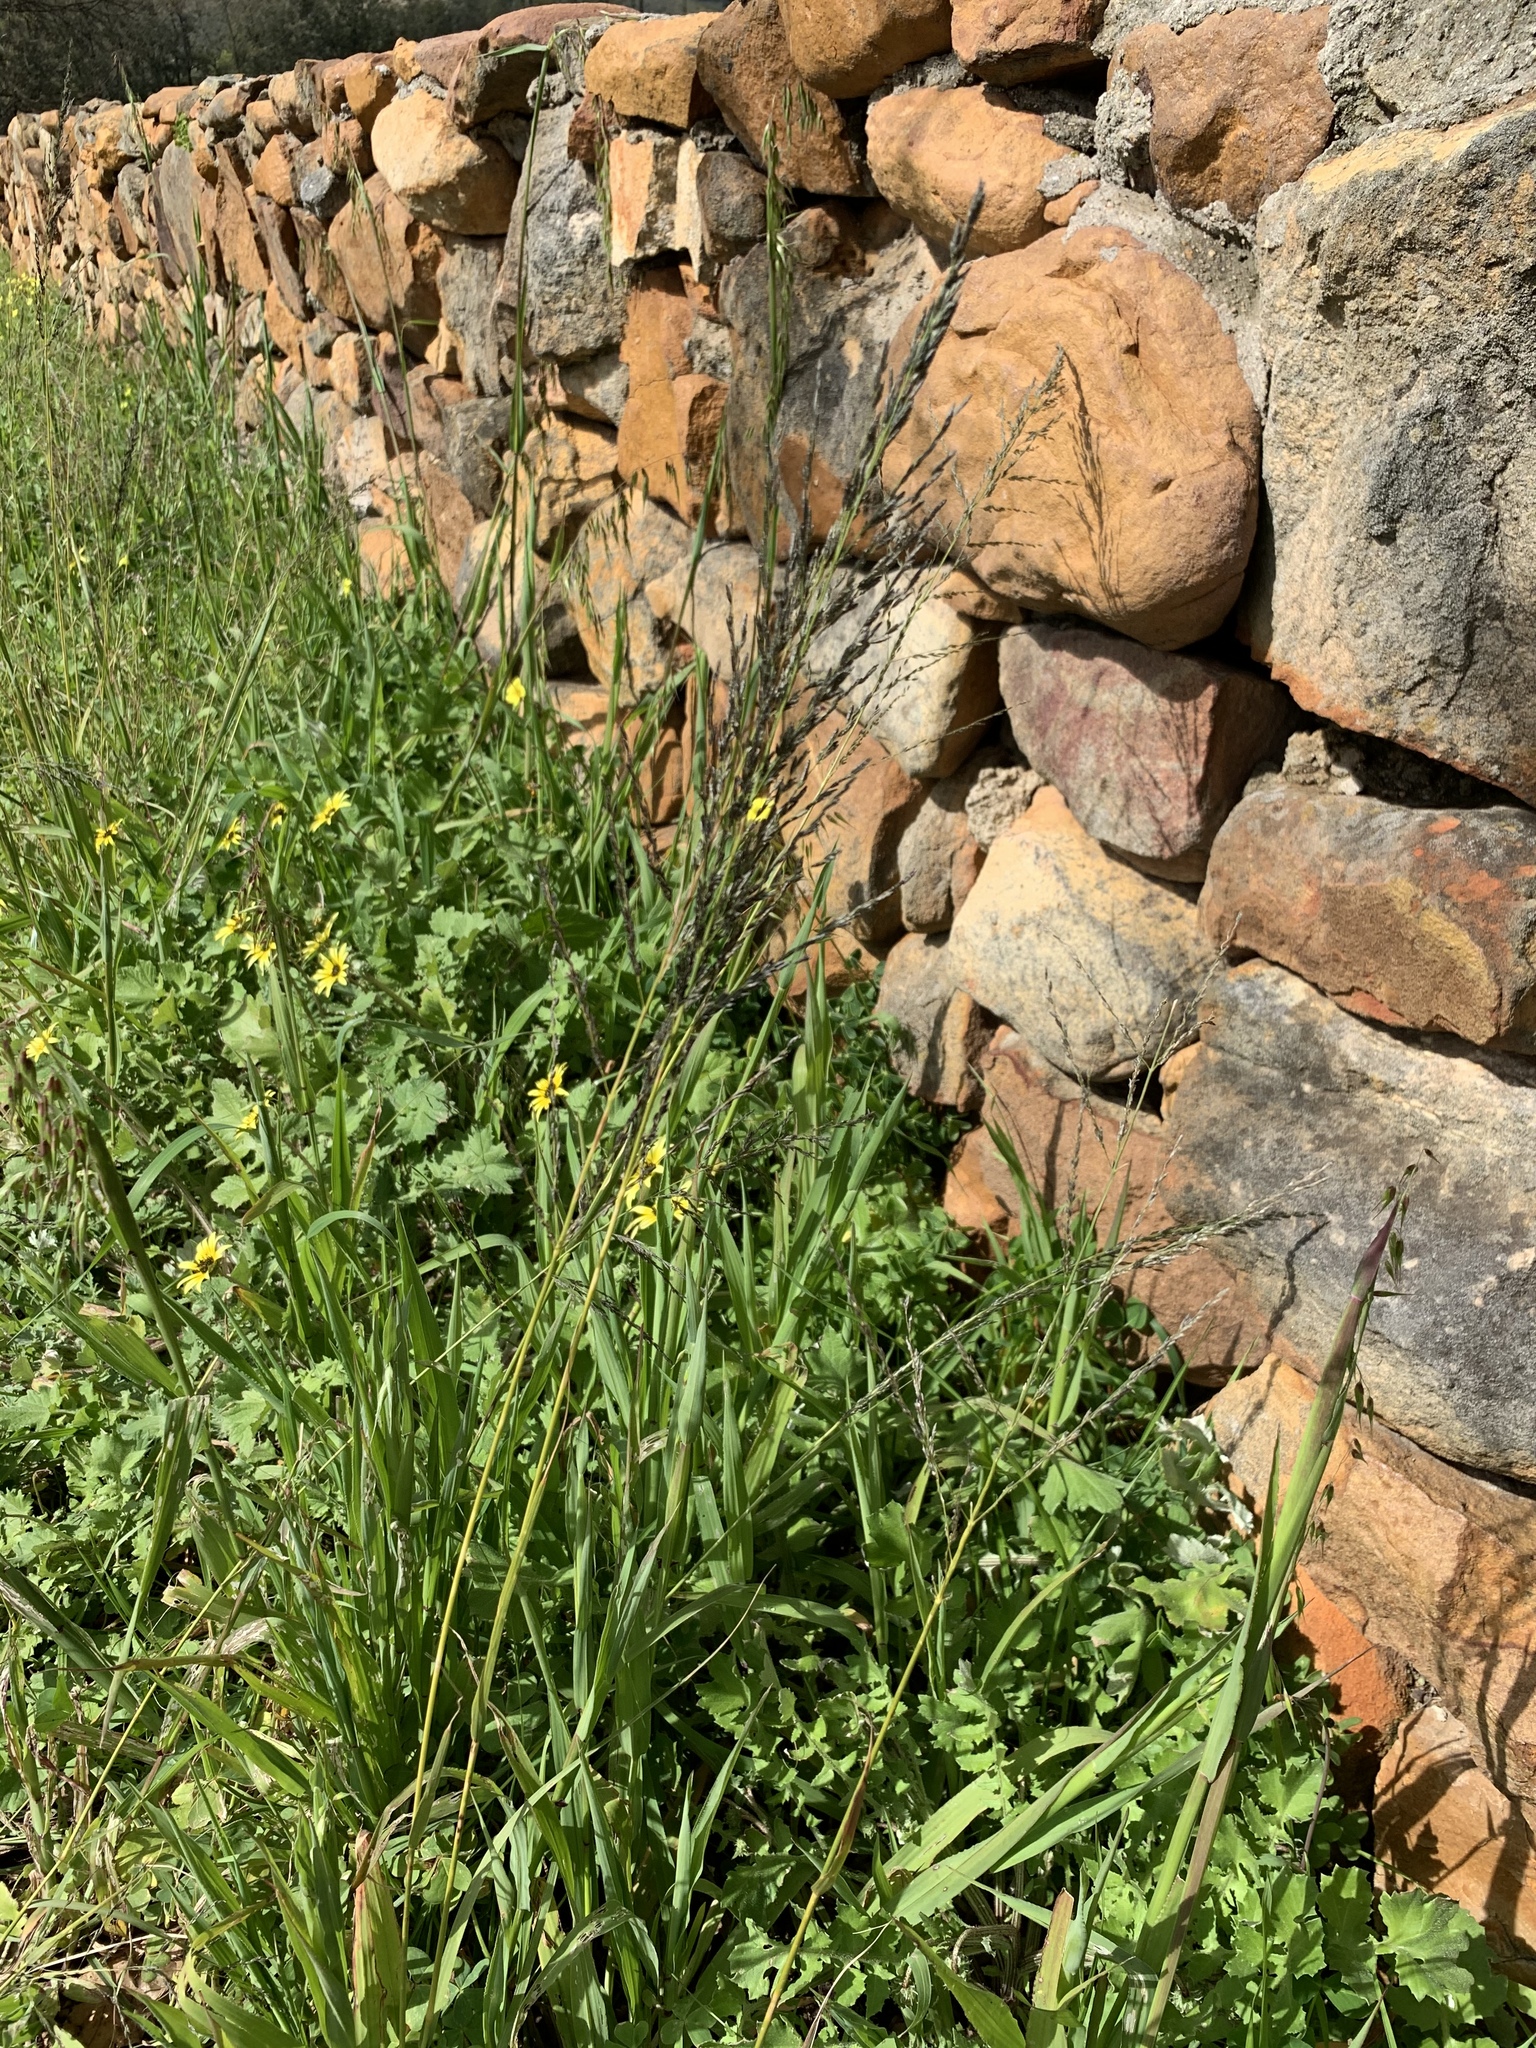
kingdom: Plantae
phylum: Tracheophyta
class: Liliopsida
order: Poales
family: Poaceae
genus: Eragrostis
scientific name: Eragrostis curvula
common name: African love-grass
